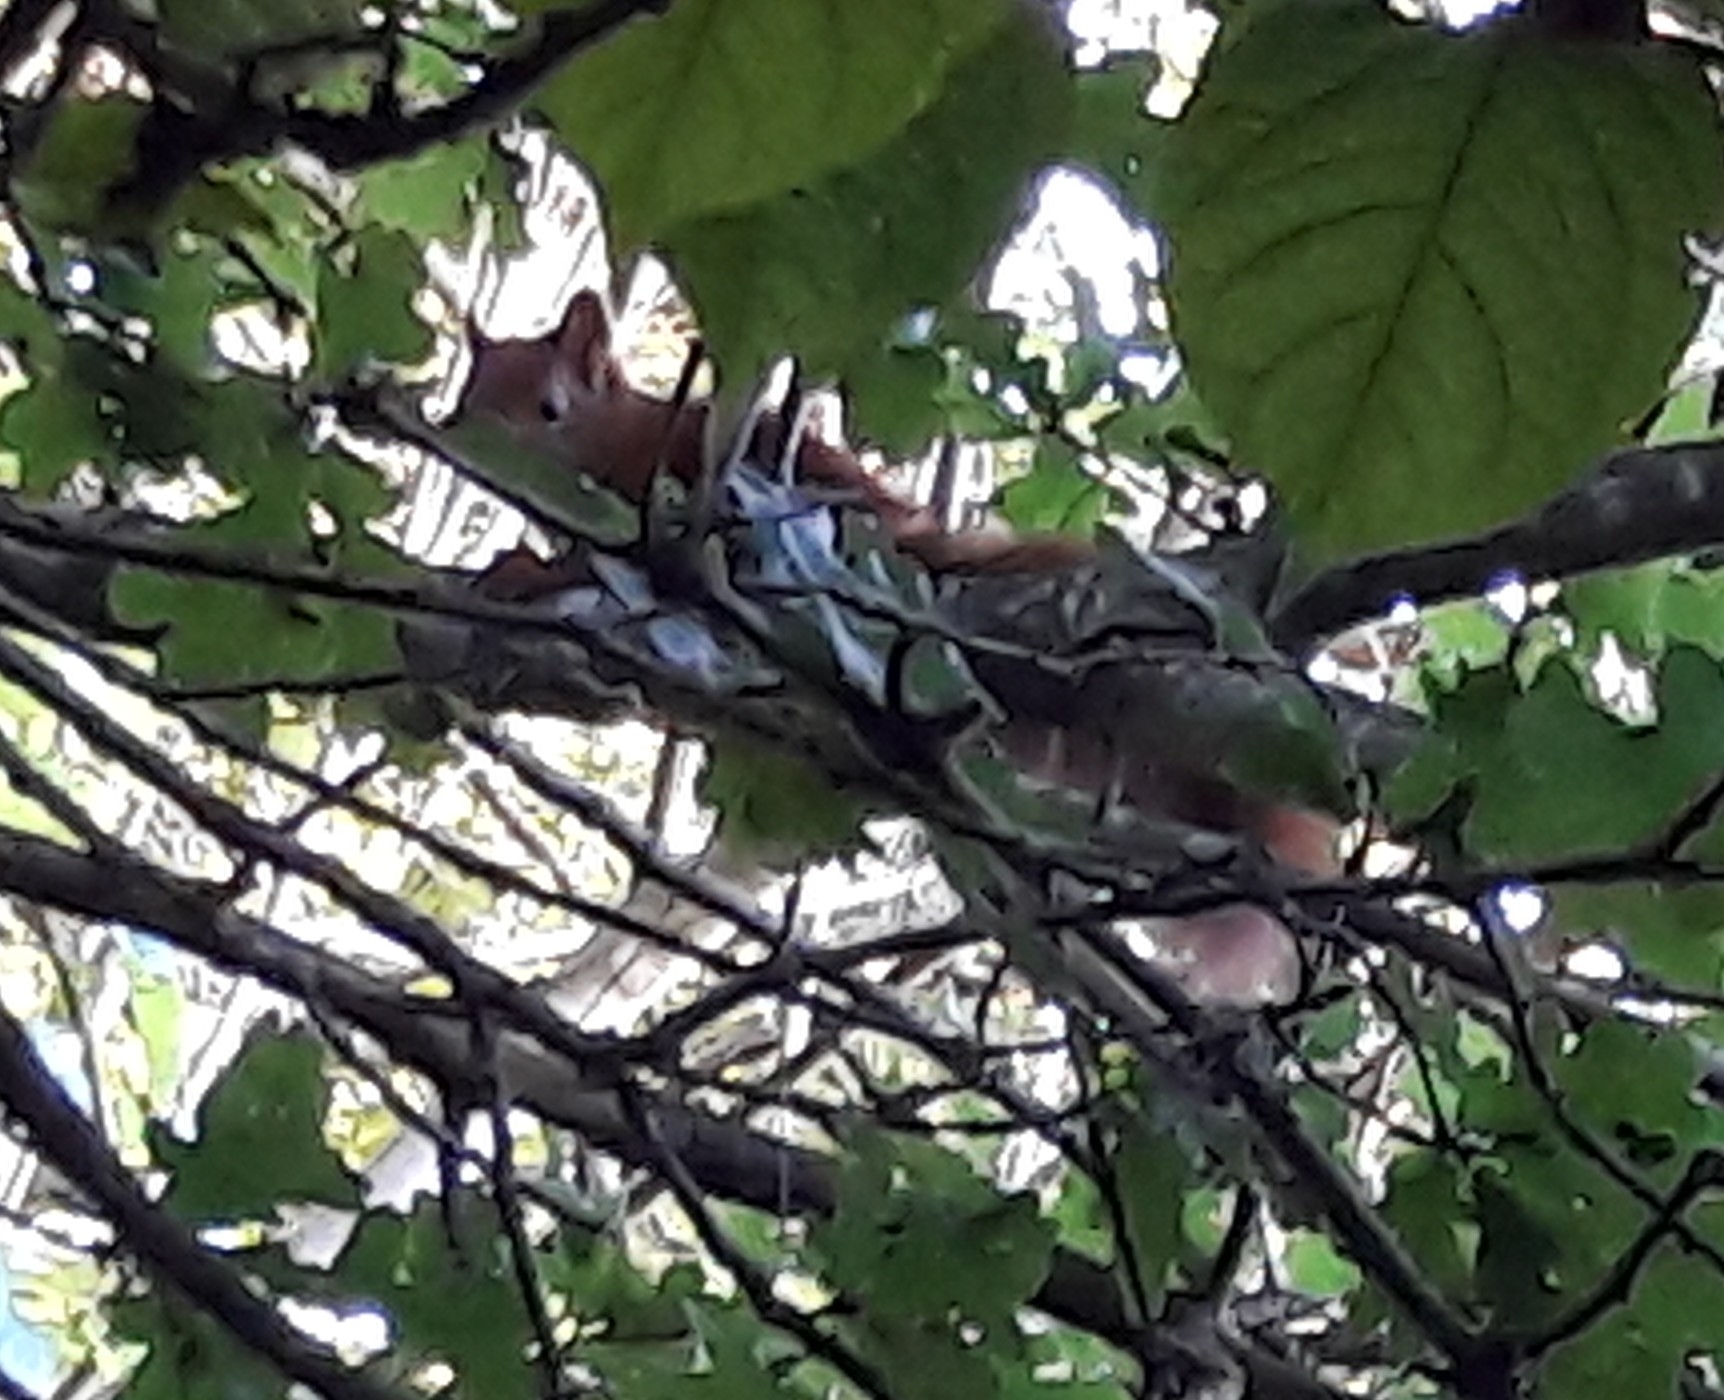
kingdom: Animalia
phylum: Chordata
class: Mammalia
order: Rodentia
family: Sciuridae
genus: Sciurus
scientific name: Sciurus vulgaris
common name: Eurasian red squirrel
